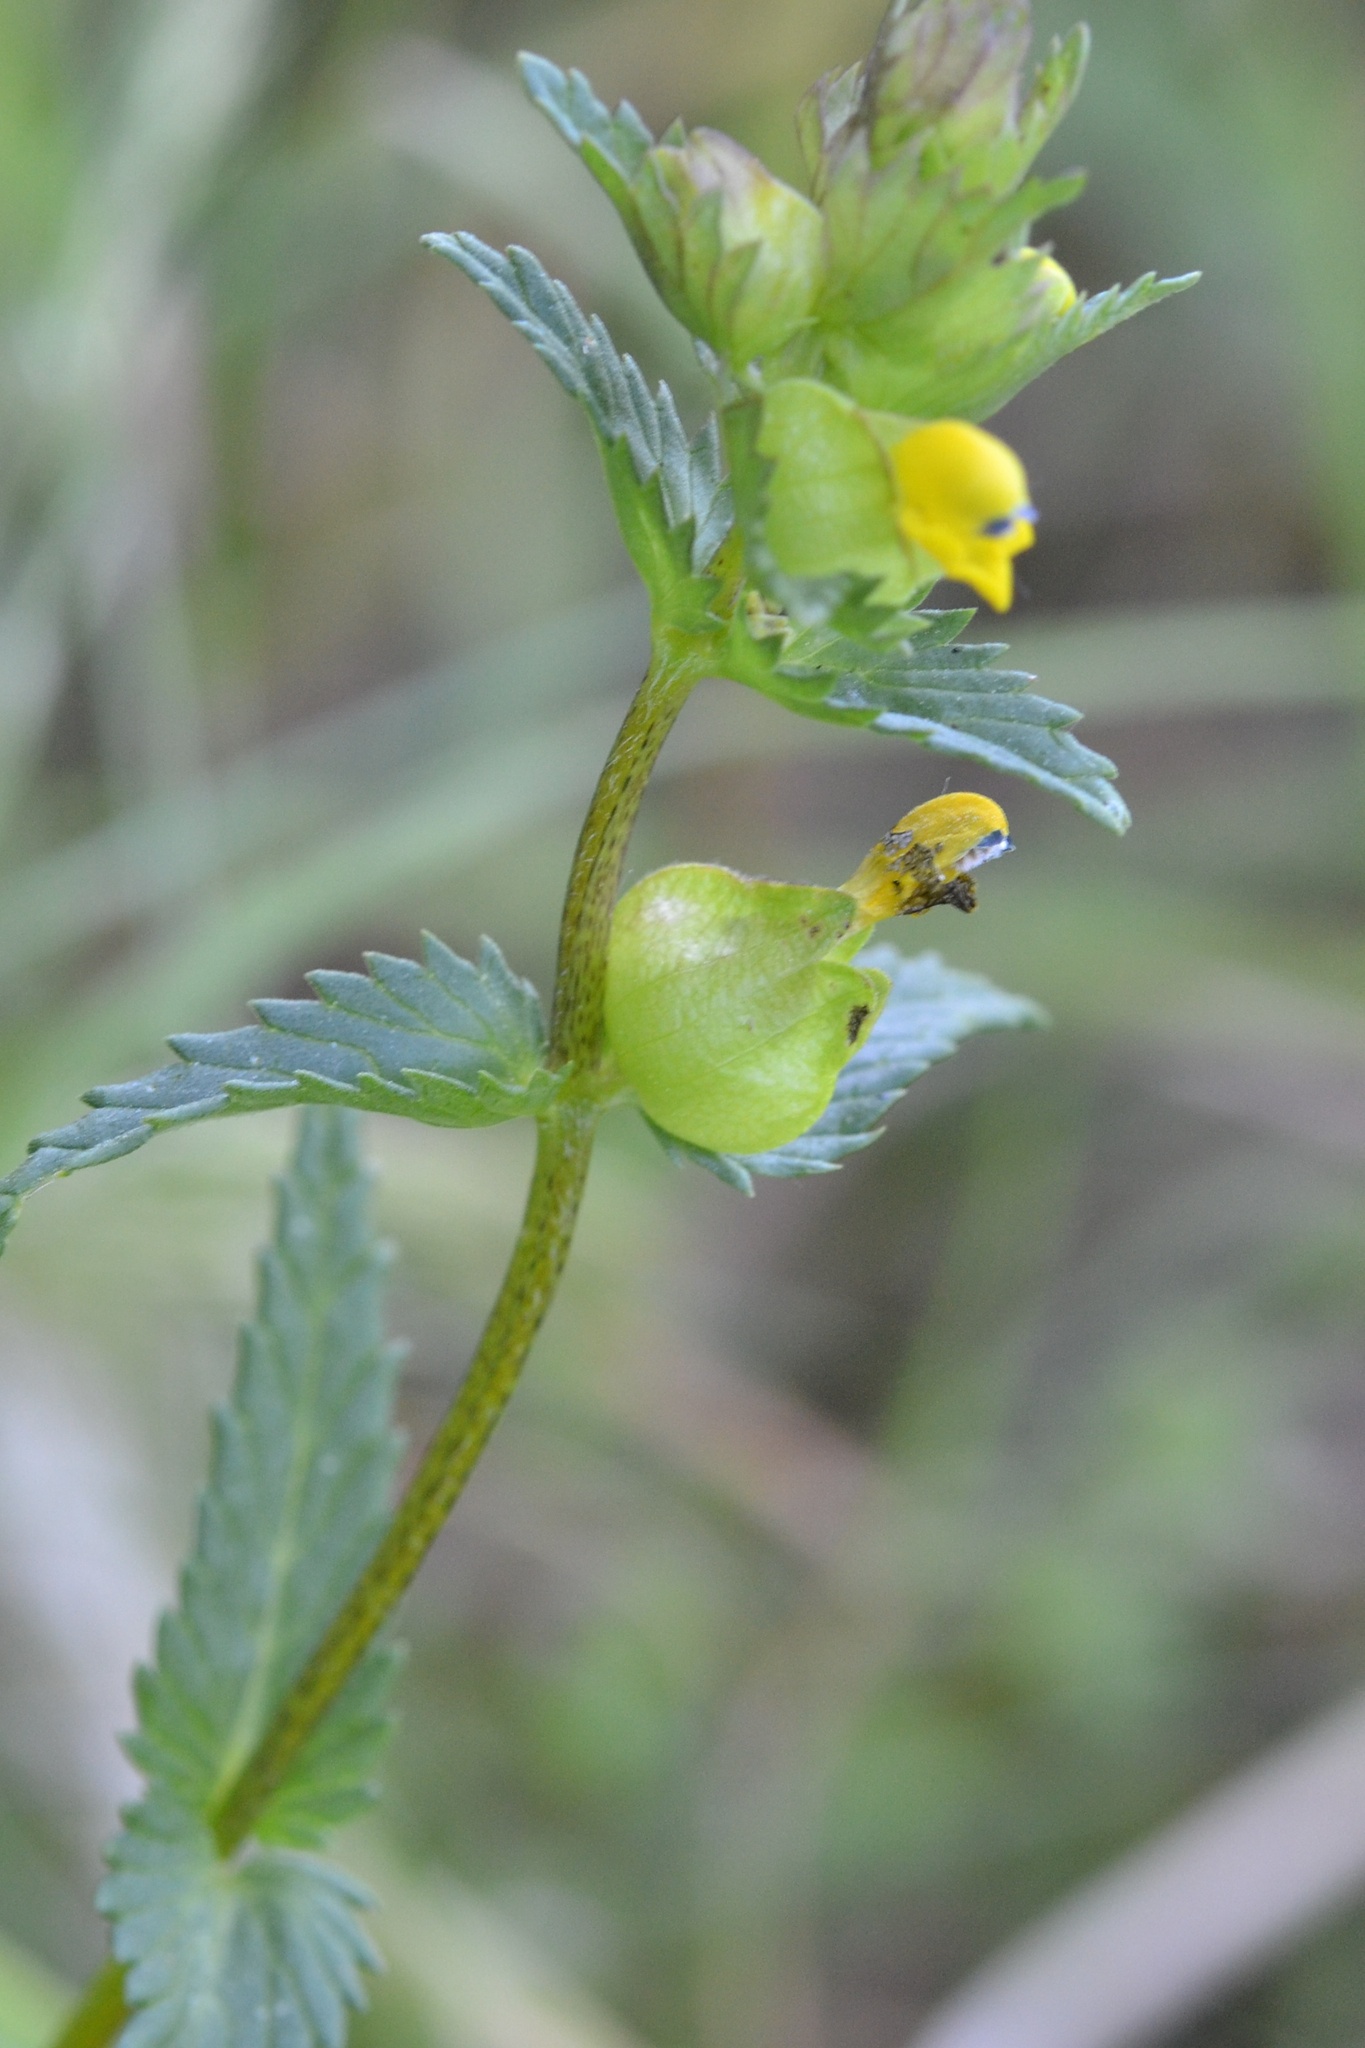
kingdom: Plantae
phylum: Tracheophyta
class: Magnoliopsida
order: Lamiales
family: Orobanchaceae
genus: Rhinanthus
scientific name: Rhinanthus minor
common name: Yellow-rattle
